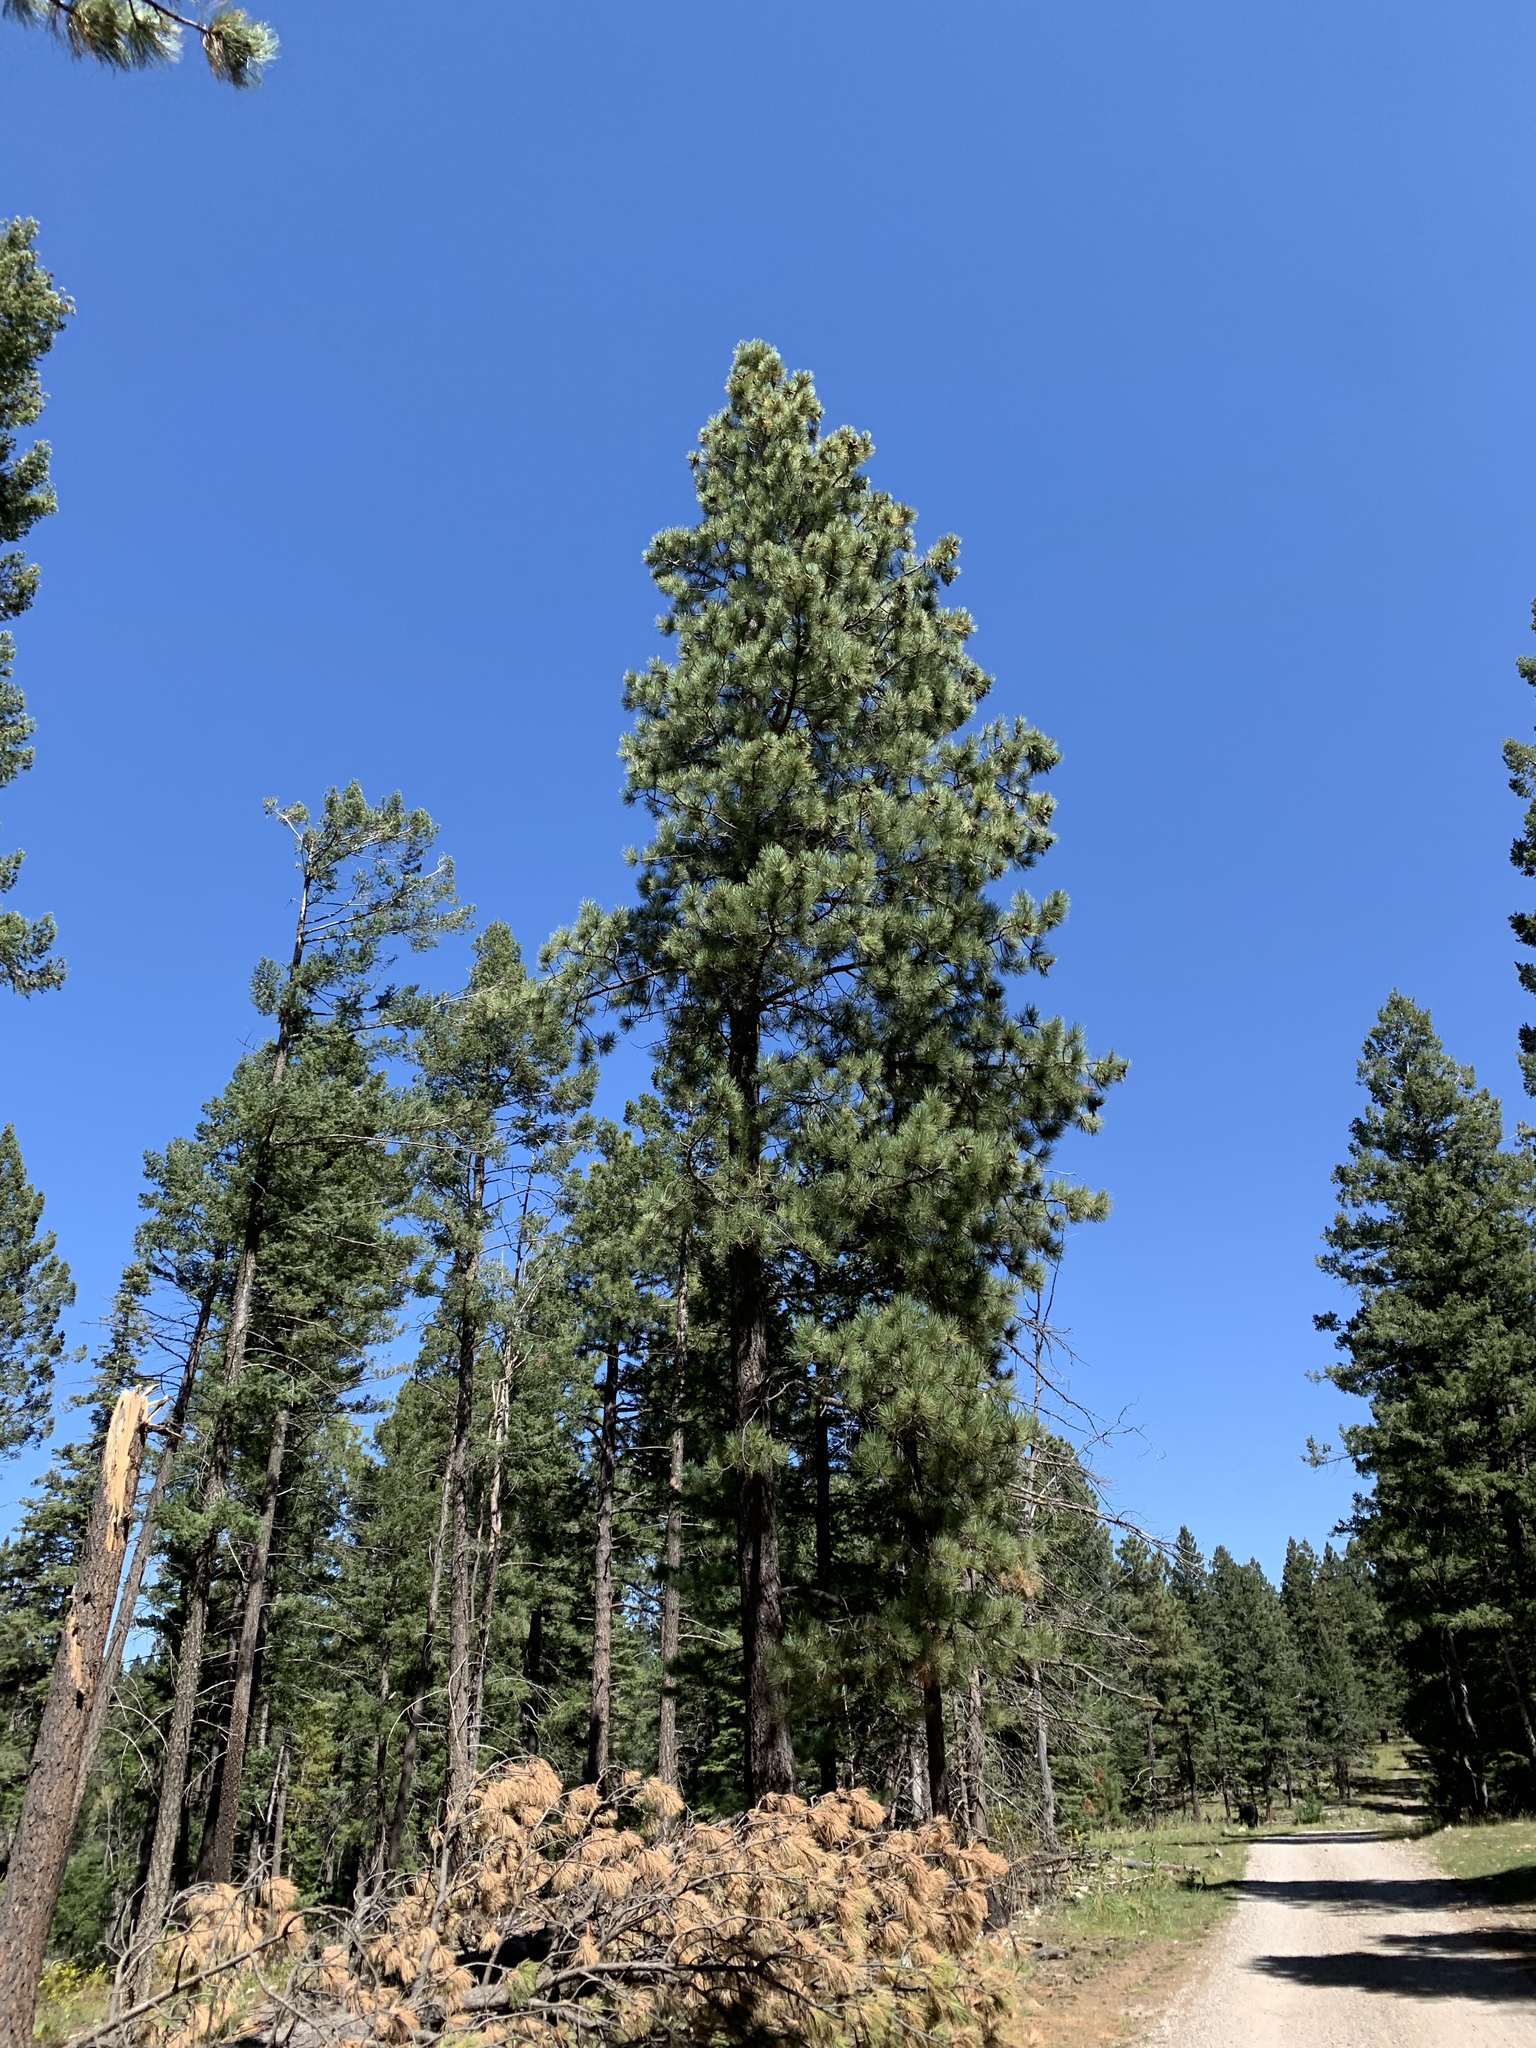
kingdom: Plantae
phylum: Tracheophyta
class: Pinopsida
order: Pinales
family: Pinaceae
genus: Pinus
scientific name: Pinus ponderosa
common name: Western yellow-pine
